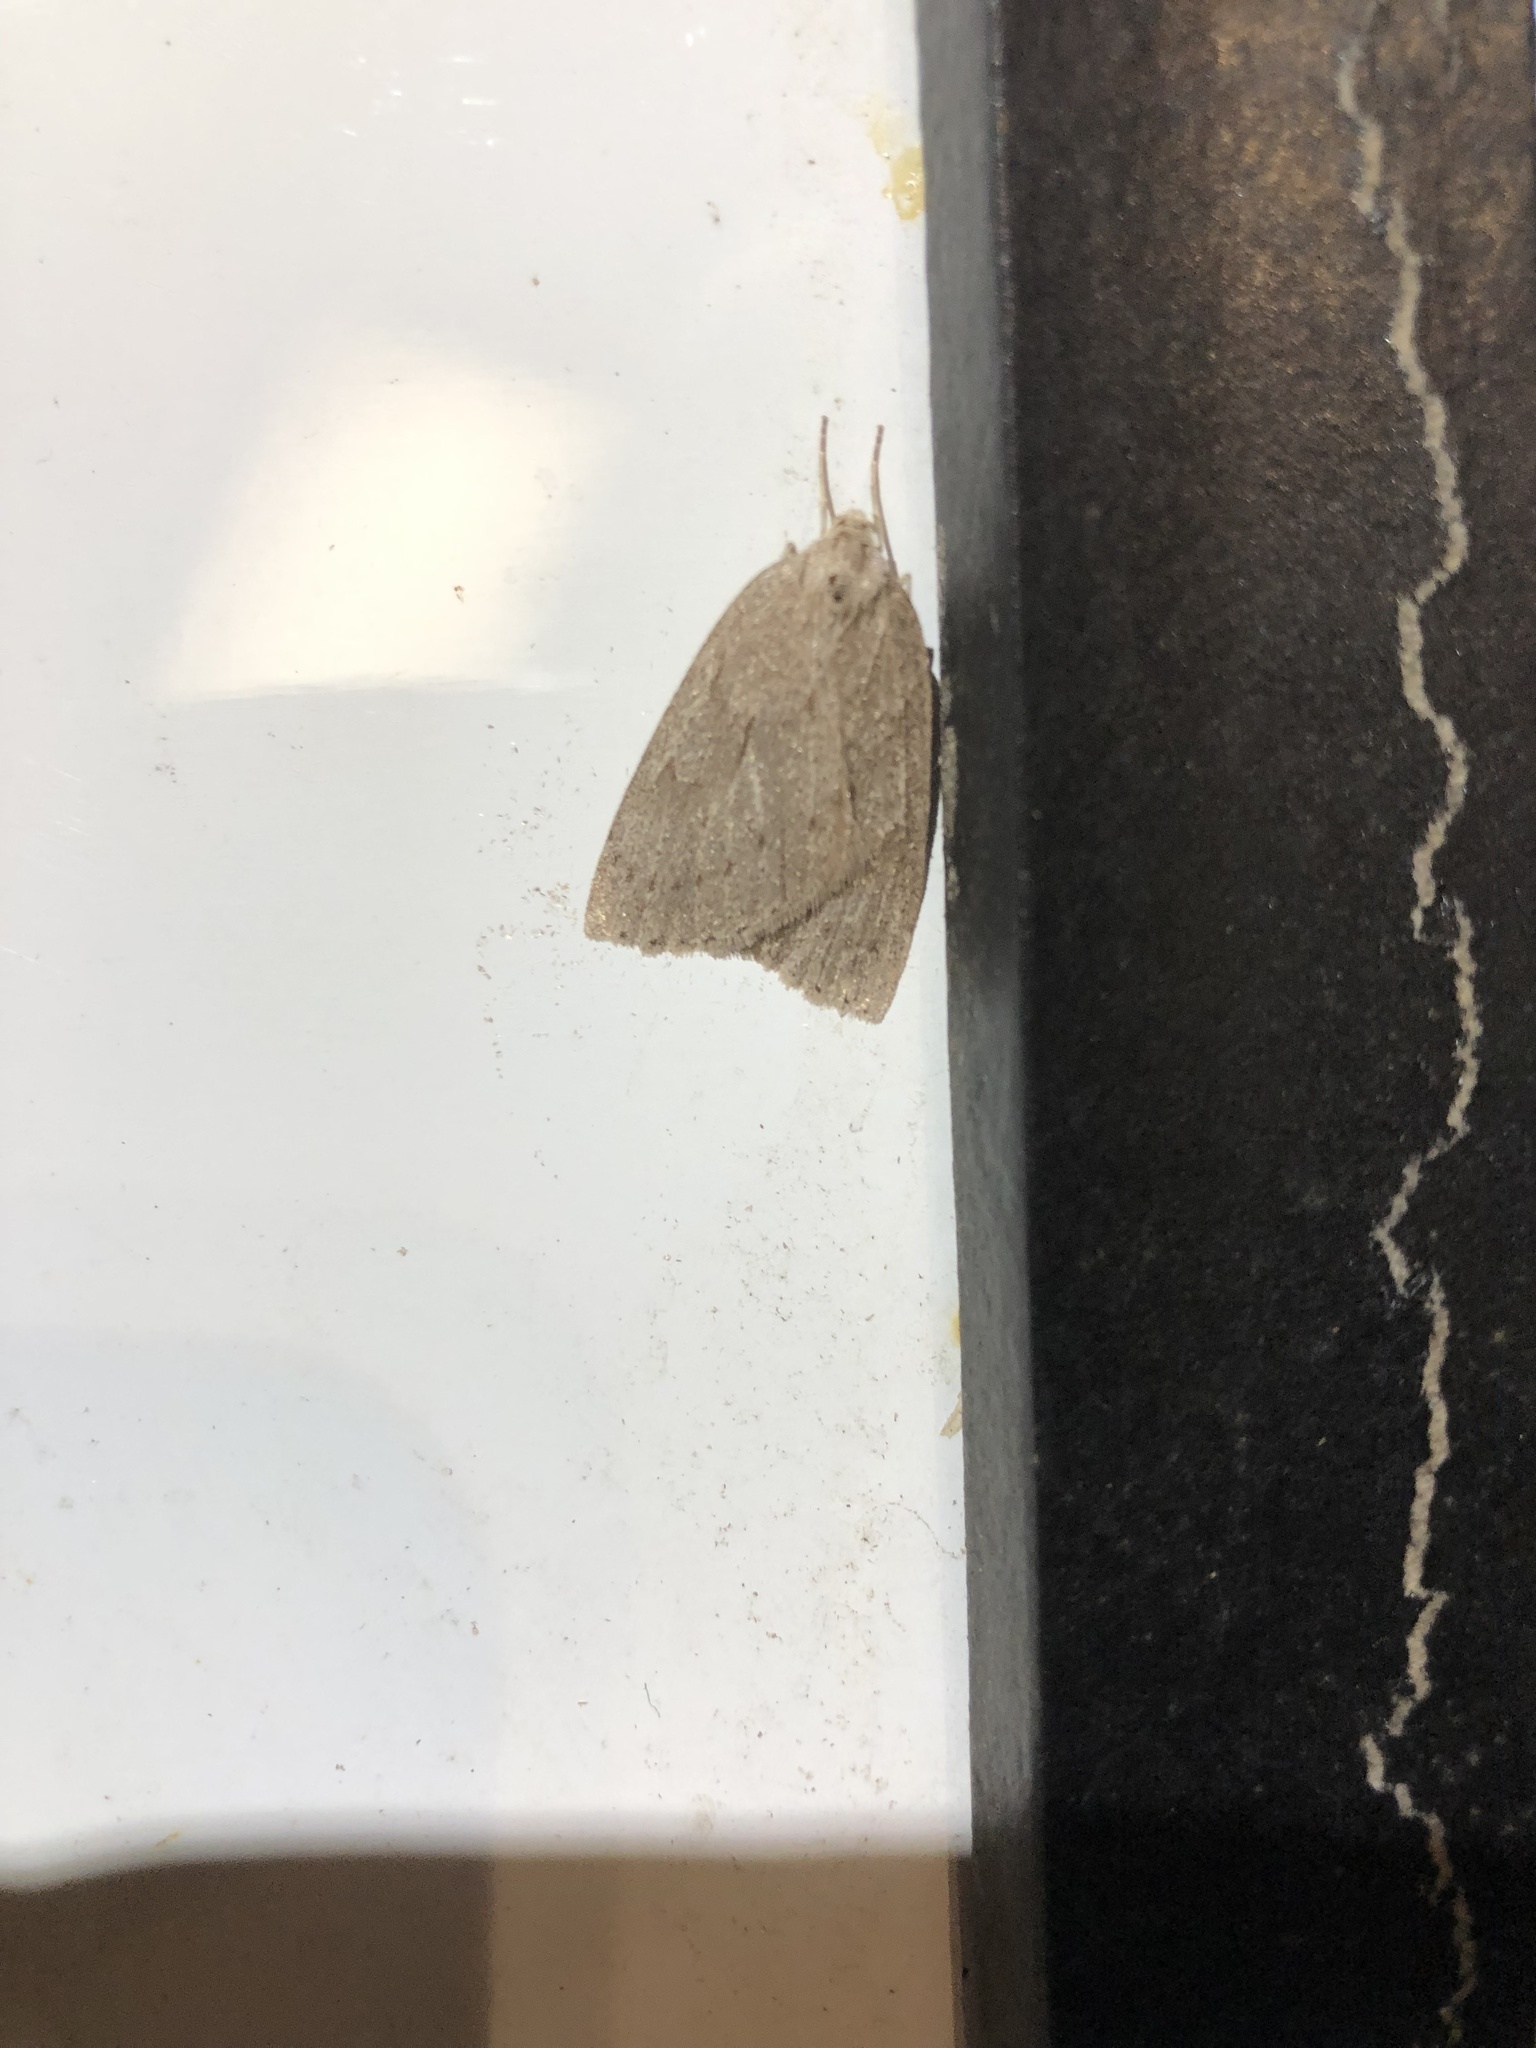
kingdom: Animalia
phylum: Arthropoda
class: Insecta
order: Lepidoptera
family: Geometridae
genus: Philedia
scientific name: Philedia punctomacularia
